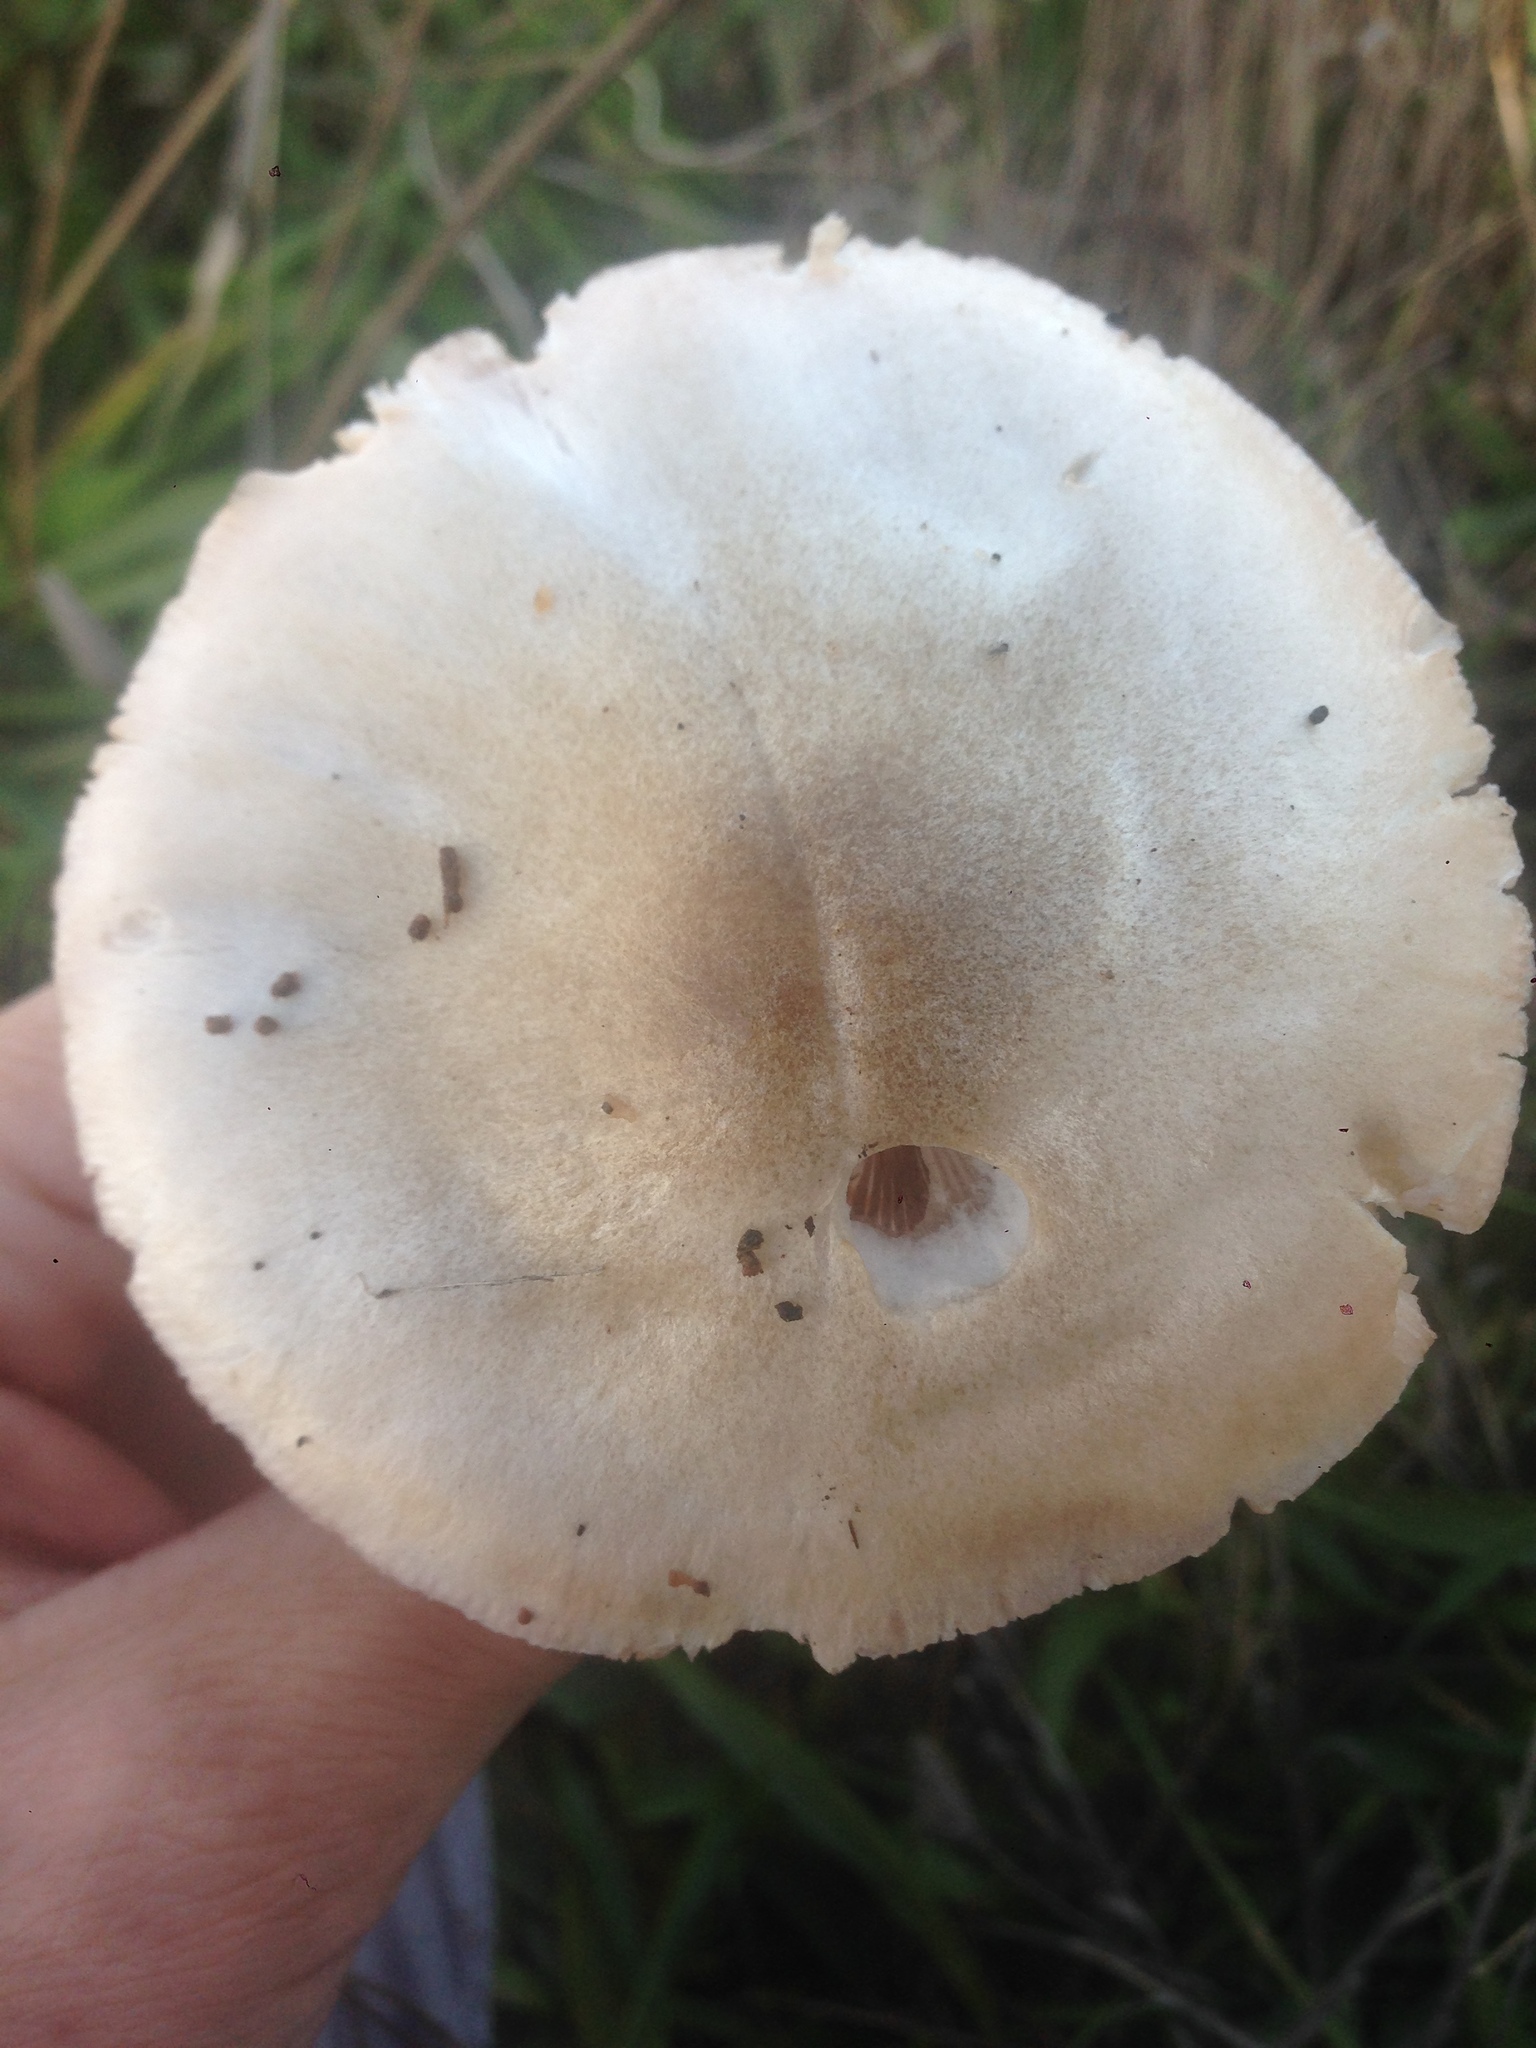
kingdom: Fungi
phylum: Basidiomycota
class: Agaricomycetes
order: Agaricales
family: Pluteaceae
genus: Volvopluteus
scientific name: Volvopluteus gloiocephalus
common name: Stubble rosegill
